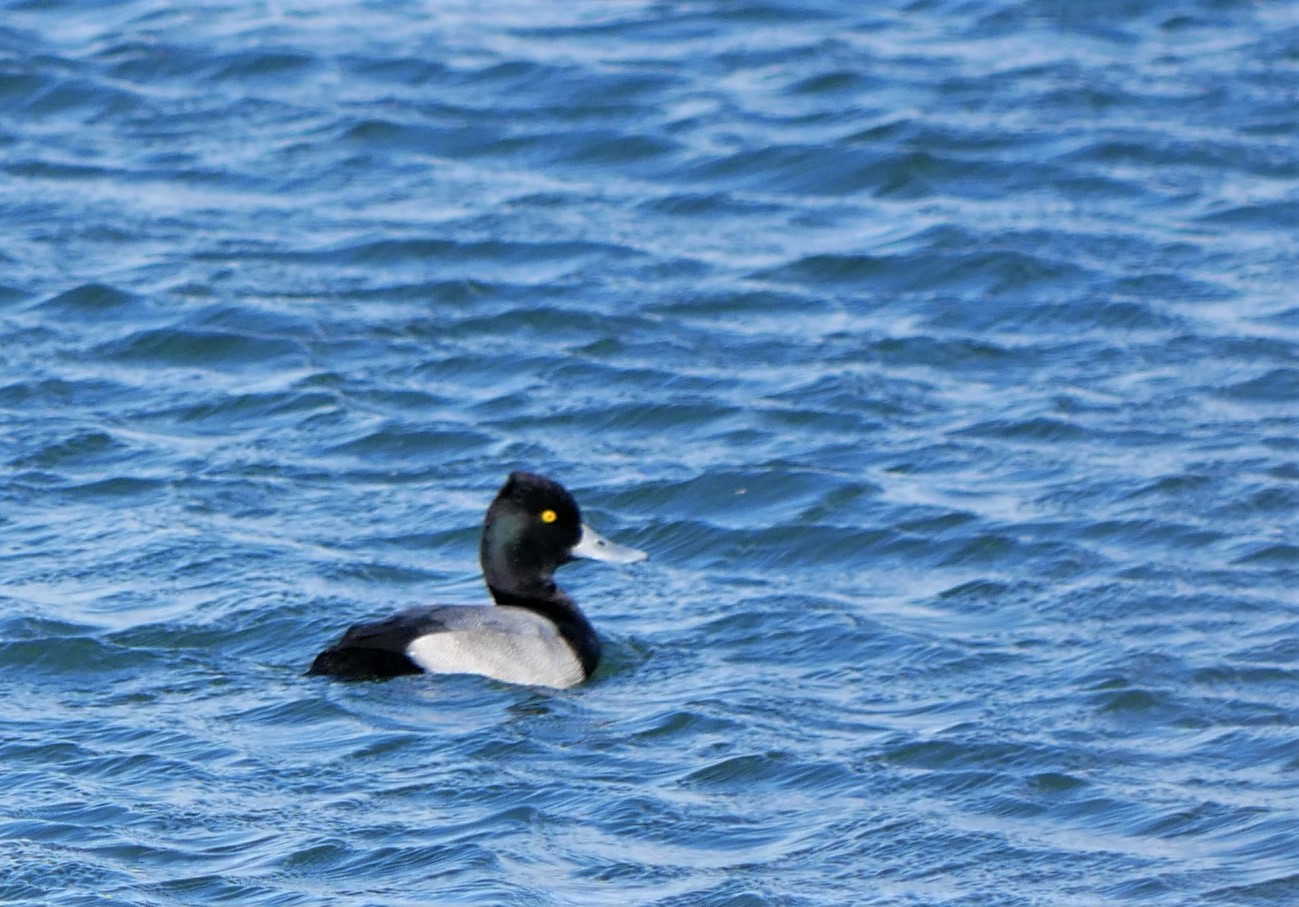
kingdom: Animalia
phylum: Chordata
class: Aves
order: Anseriformes
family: Anatidae
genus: Aythya
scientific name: Aythya affinis
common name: Lesser scaup
